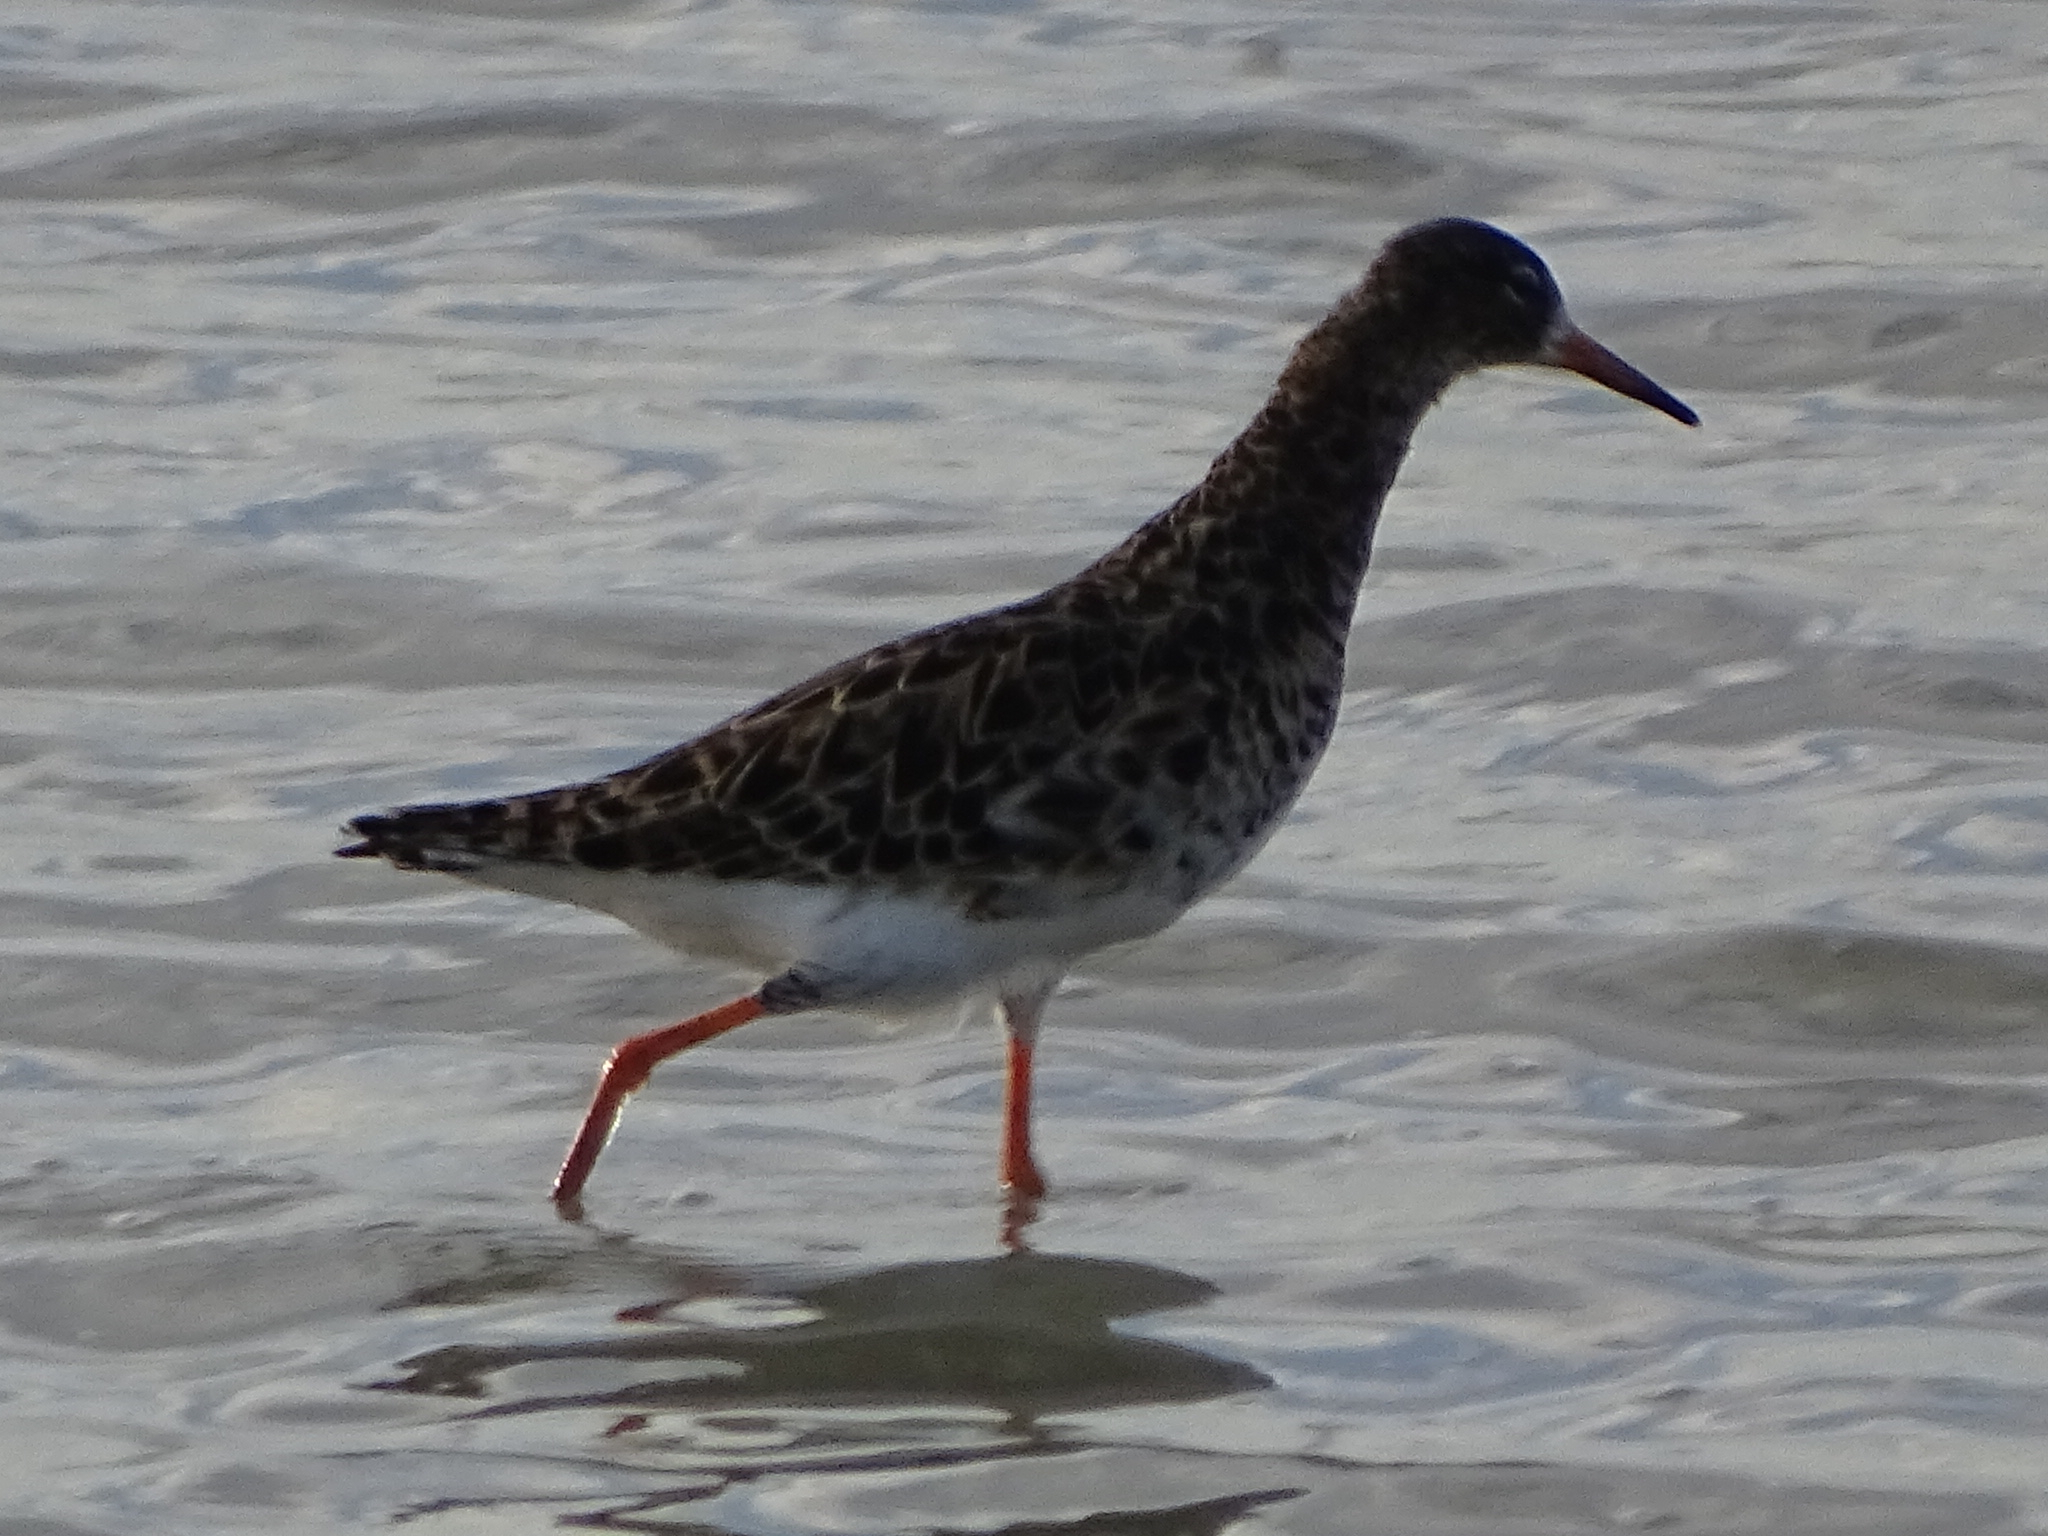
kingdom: Animalia
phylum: Chordata
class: Aves
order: Charadriiformes
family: Scolopacidae
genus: Calidris
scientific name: Calidris pugnax
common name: Ruff
